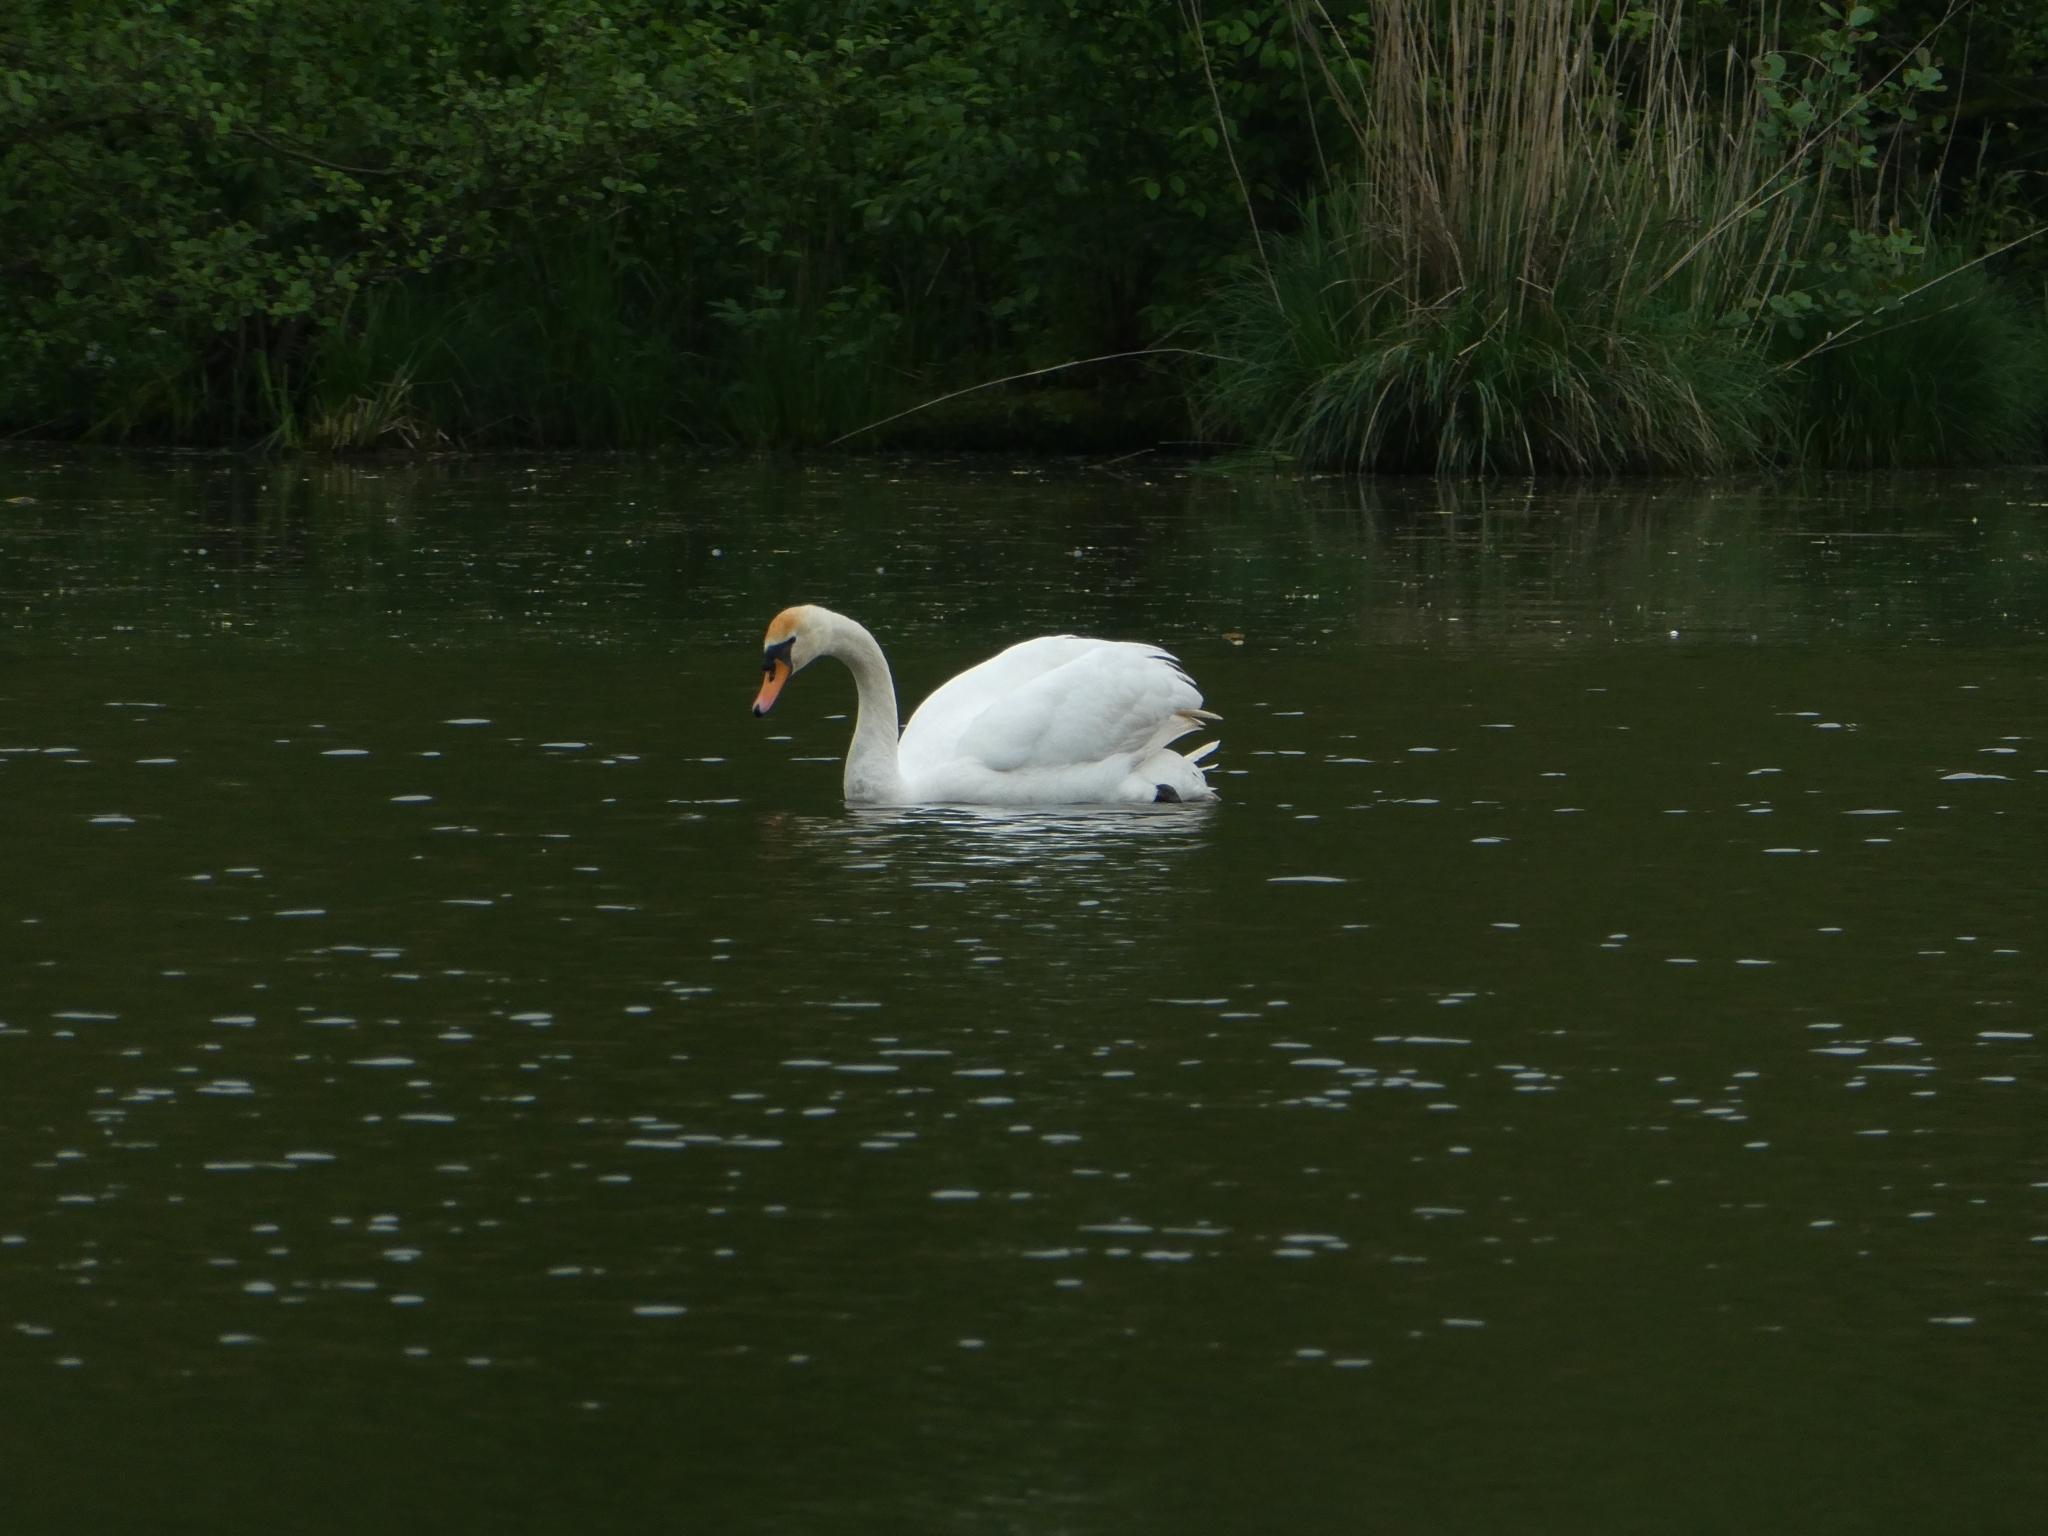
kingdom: Animalia
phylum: Chordata
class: Aves
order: Anseriformes
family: Anatidae
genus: Cygnus
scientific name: Cygnus olor
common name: Mute swan
